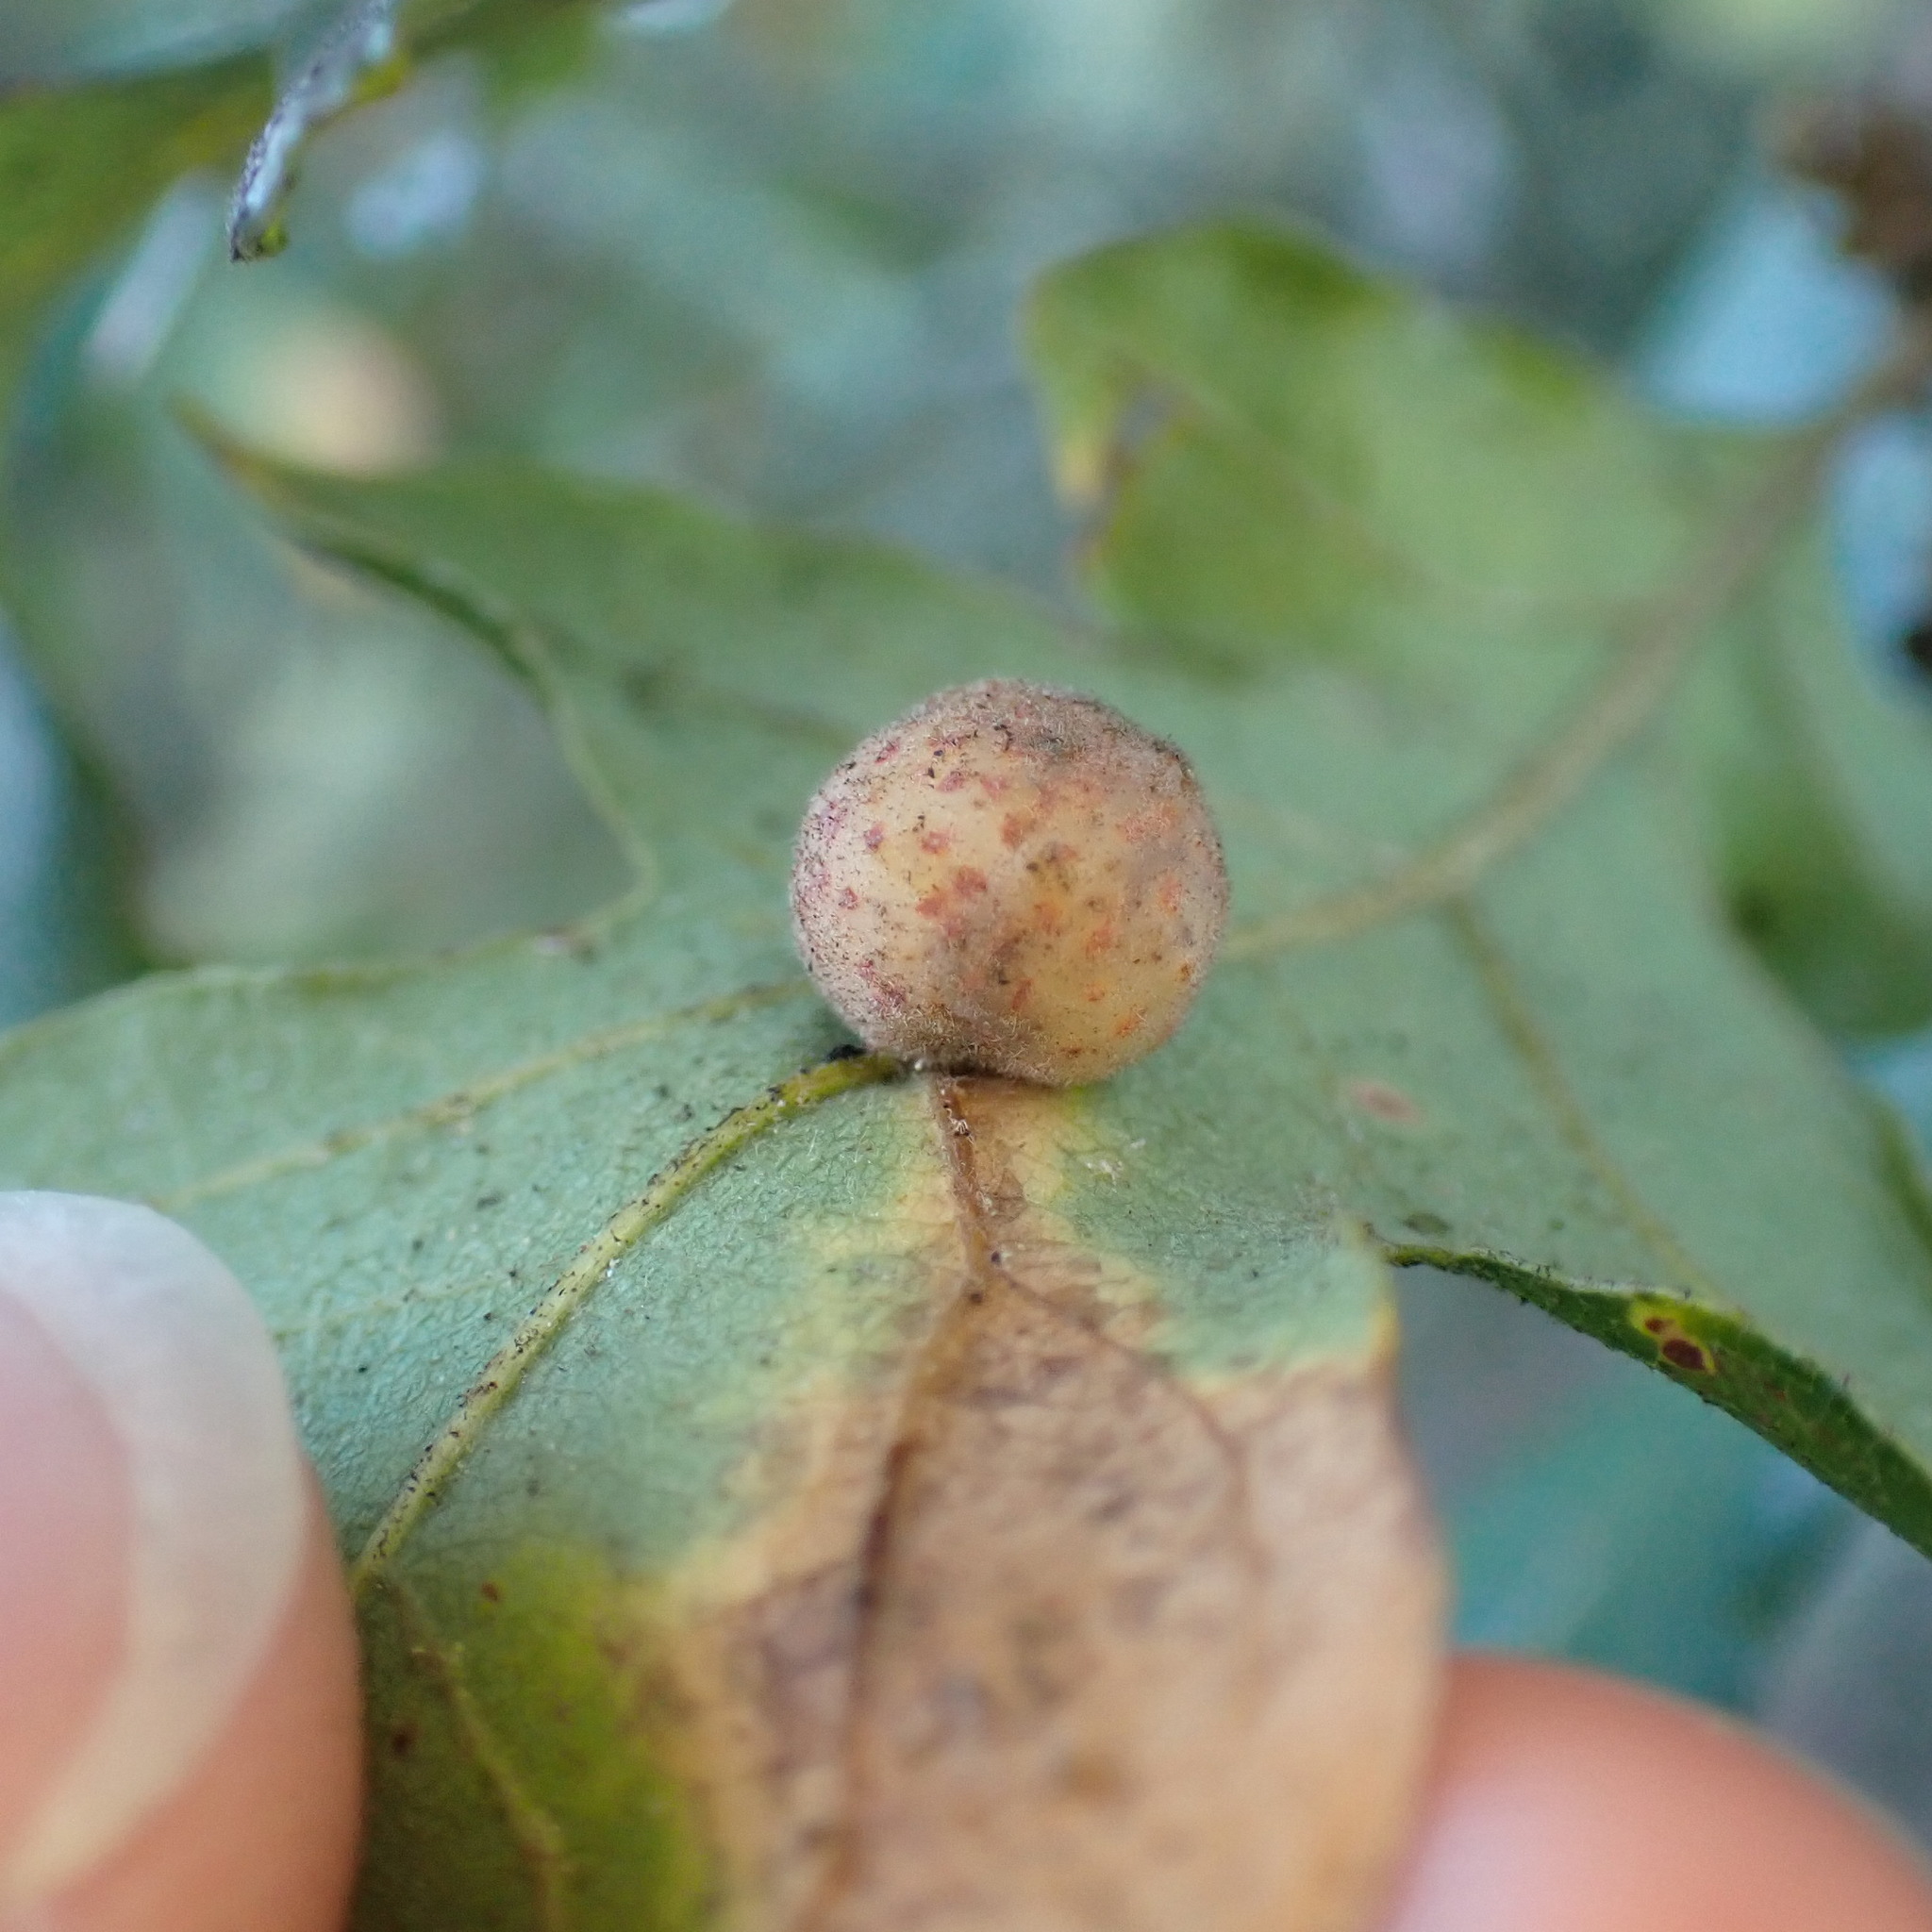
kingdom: Animalia
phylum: Arthropoda
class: Insecta
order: Hymenoptera
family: Cynipidae
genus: Cynips
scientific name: Cynips
